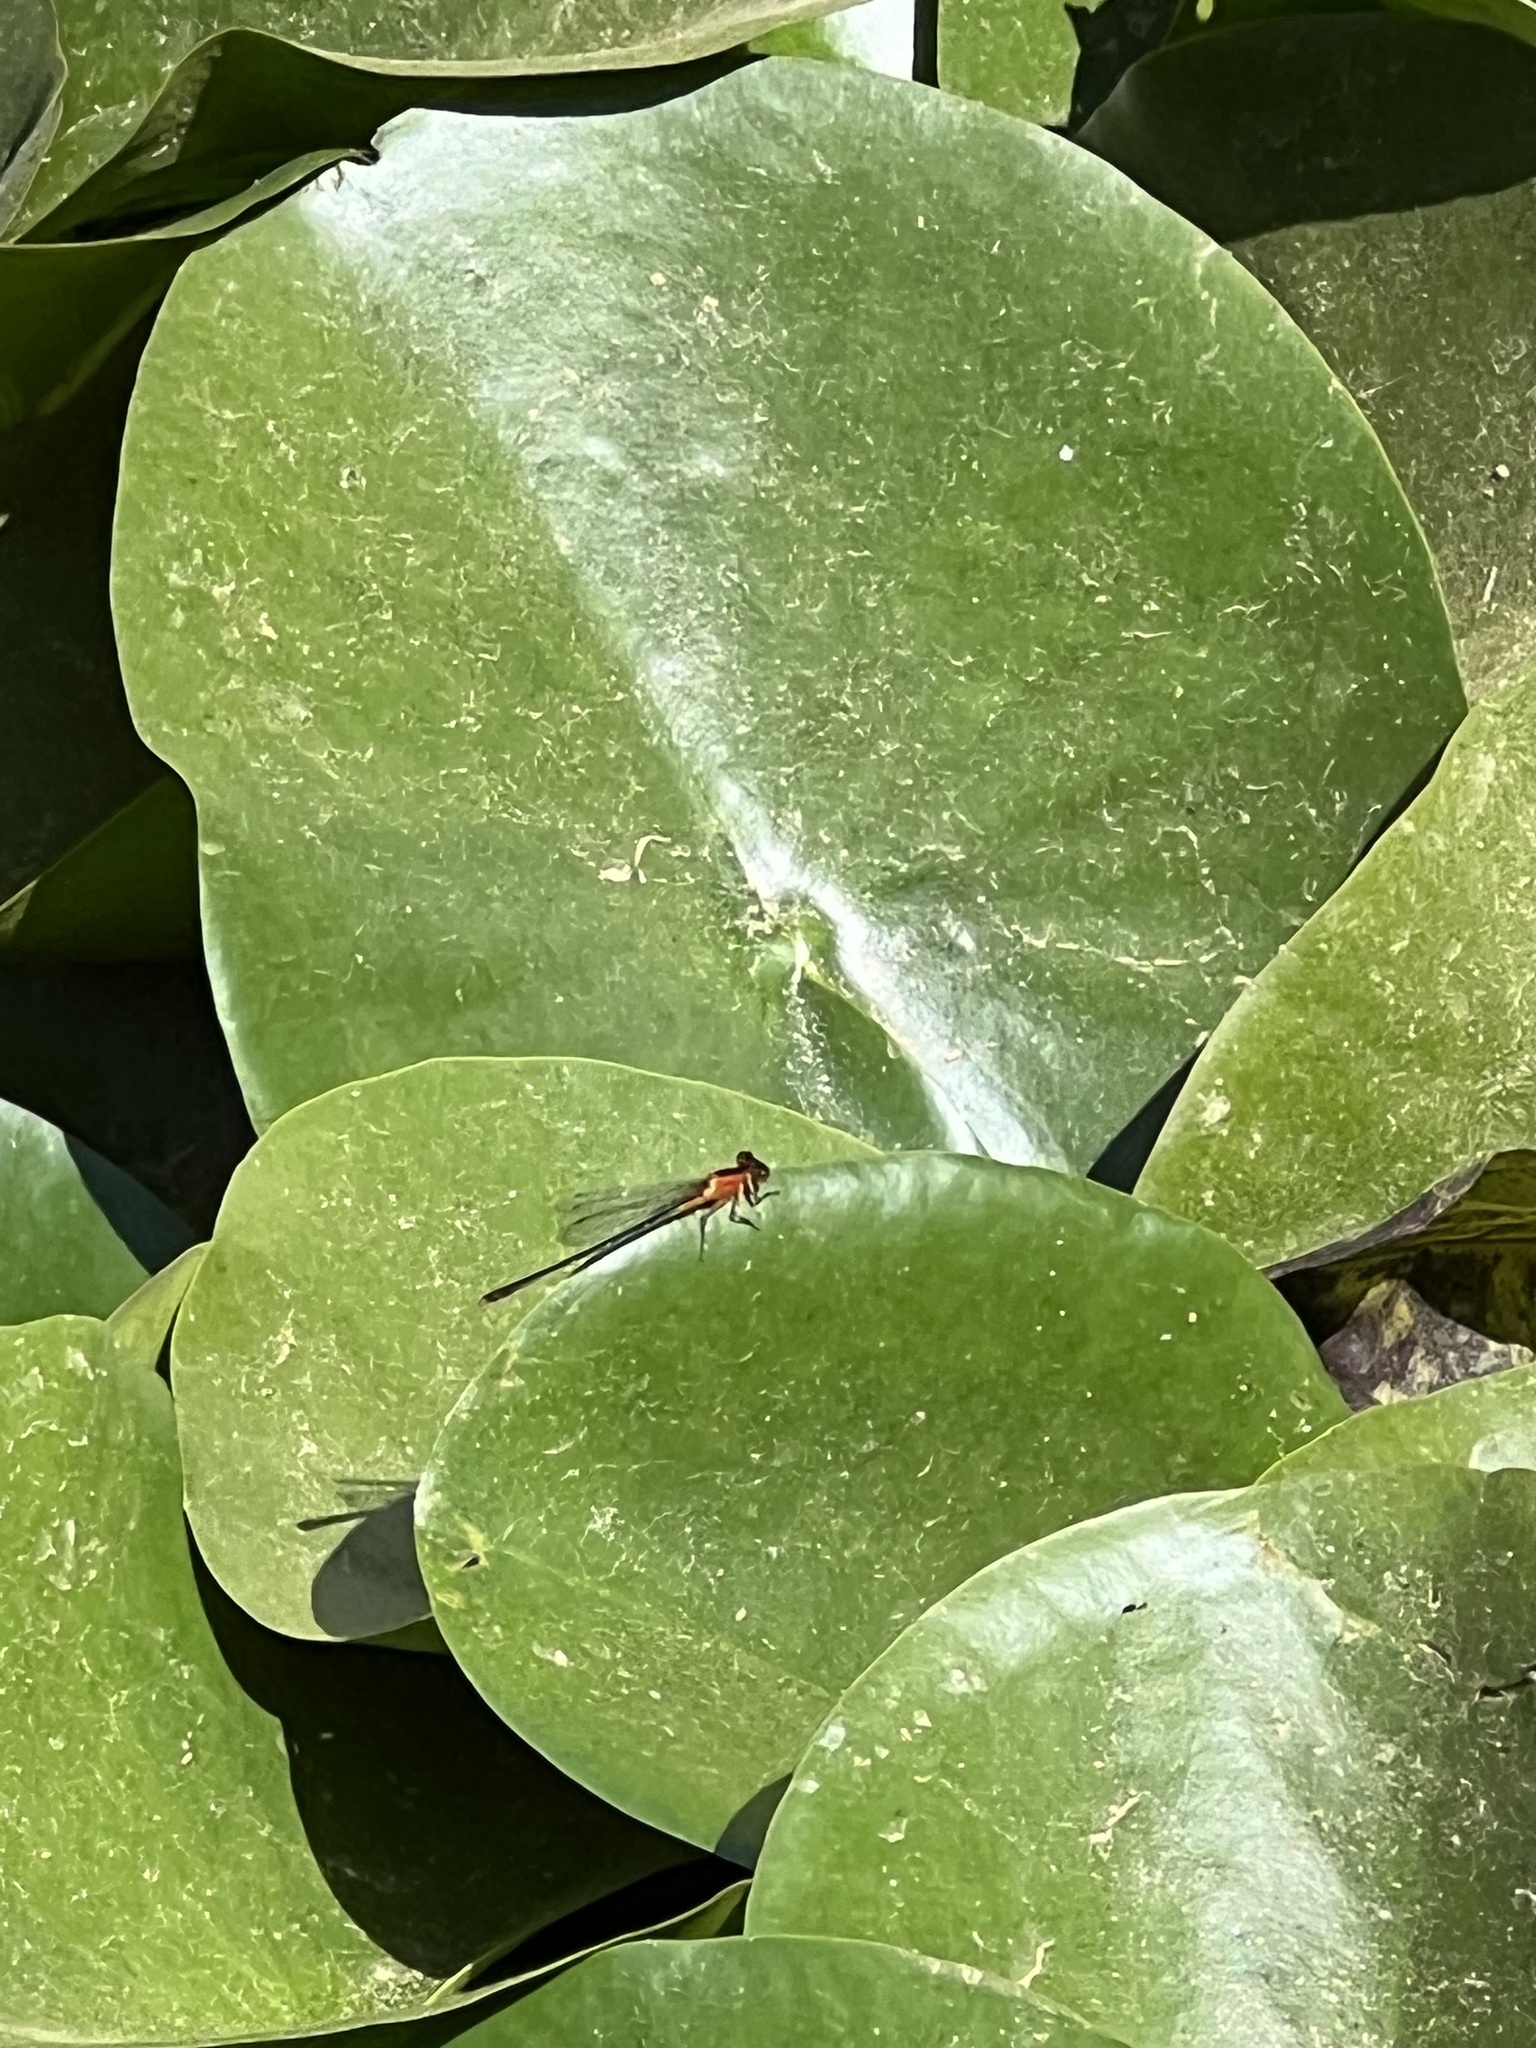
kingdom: Animalia
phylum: Arthropoda
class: Insecta
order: Odonata
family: Coenagrionidae
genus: Ischnura
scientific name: Ischnura ramburii
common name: Rambur's forktail
